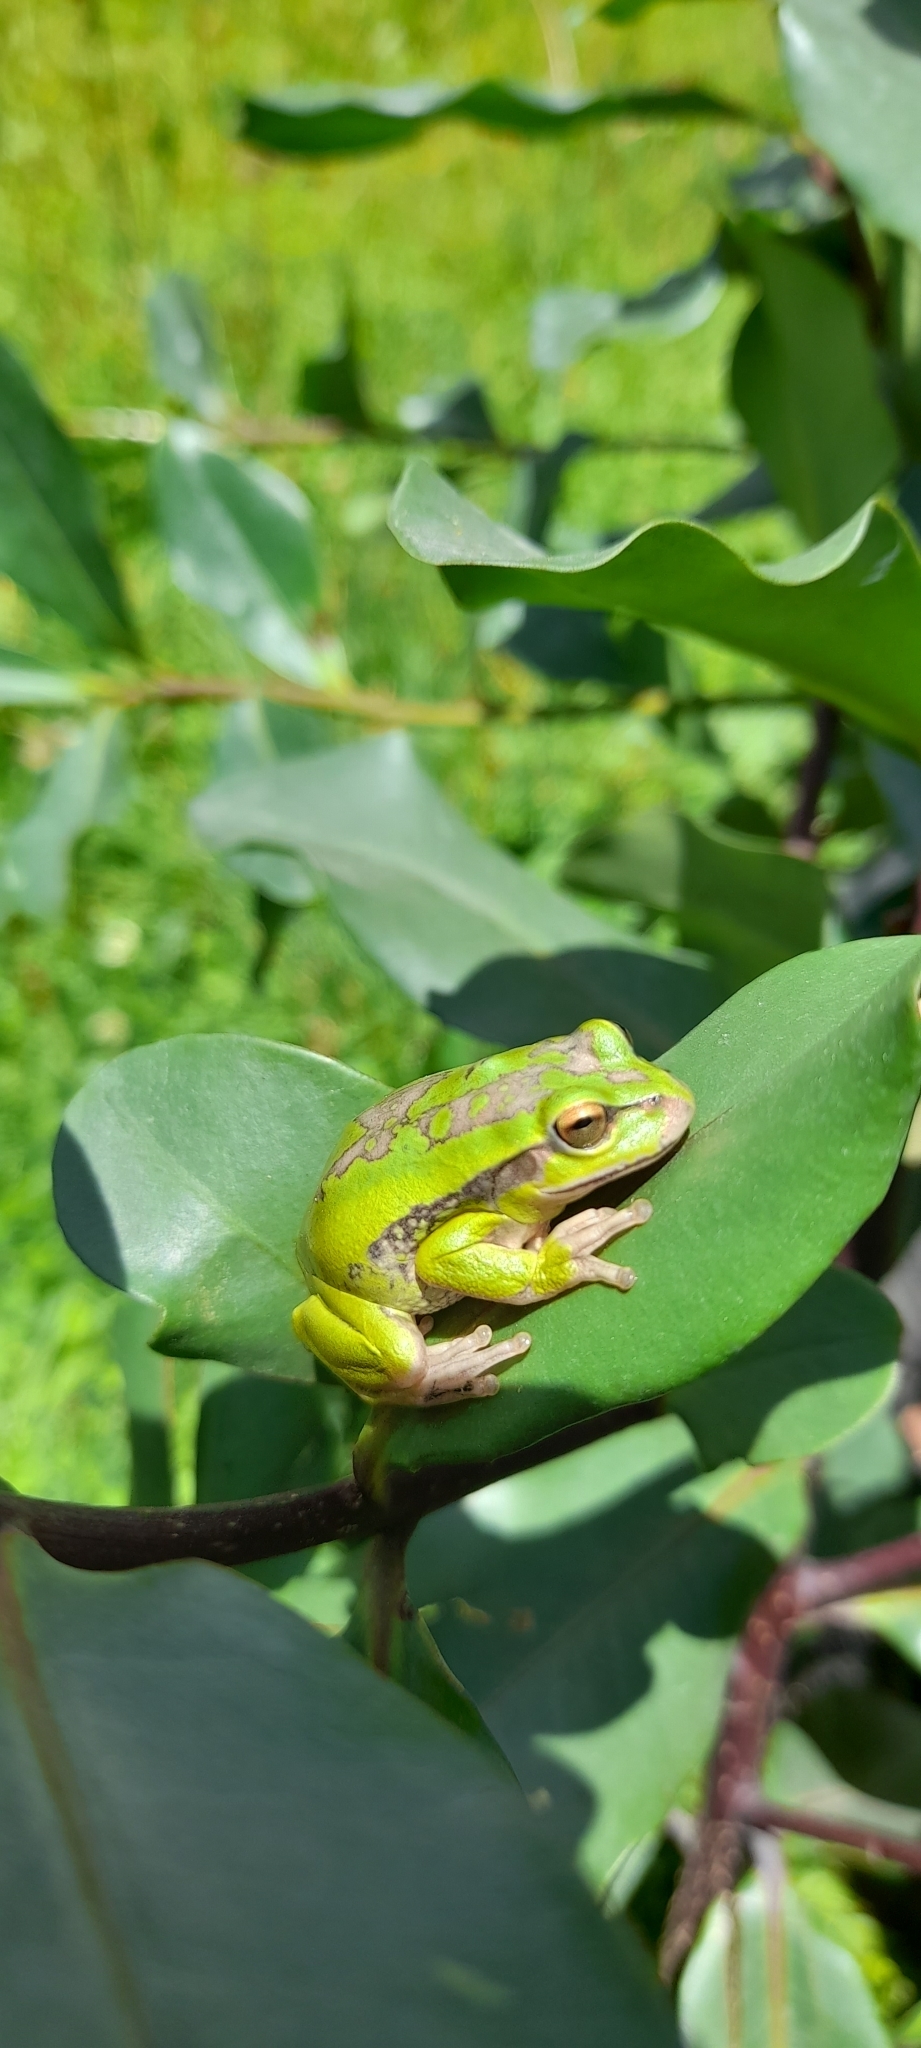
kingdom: Animalia
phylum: Chordata
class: Amphibia
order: Anura
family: Hylidae
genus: Dendropsophus
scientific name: Dendropsophus molitor
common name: Green dotted treefrog
